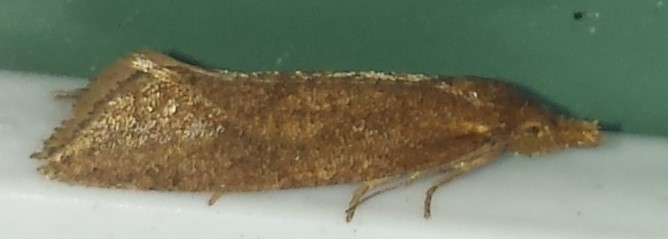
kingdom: Animalia
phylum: Arthropoda
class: Insecta
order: Lepidoptera
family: Tortricidae
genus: Aethes
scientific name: Aethes biscana
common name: Reddish aethes
